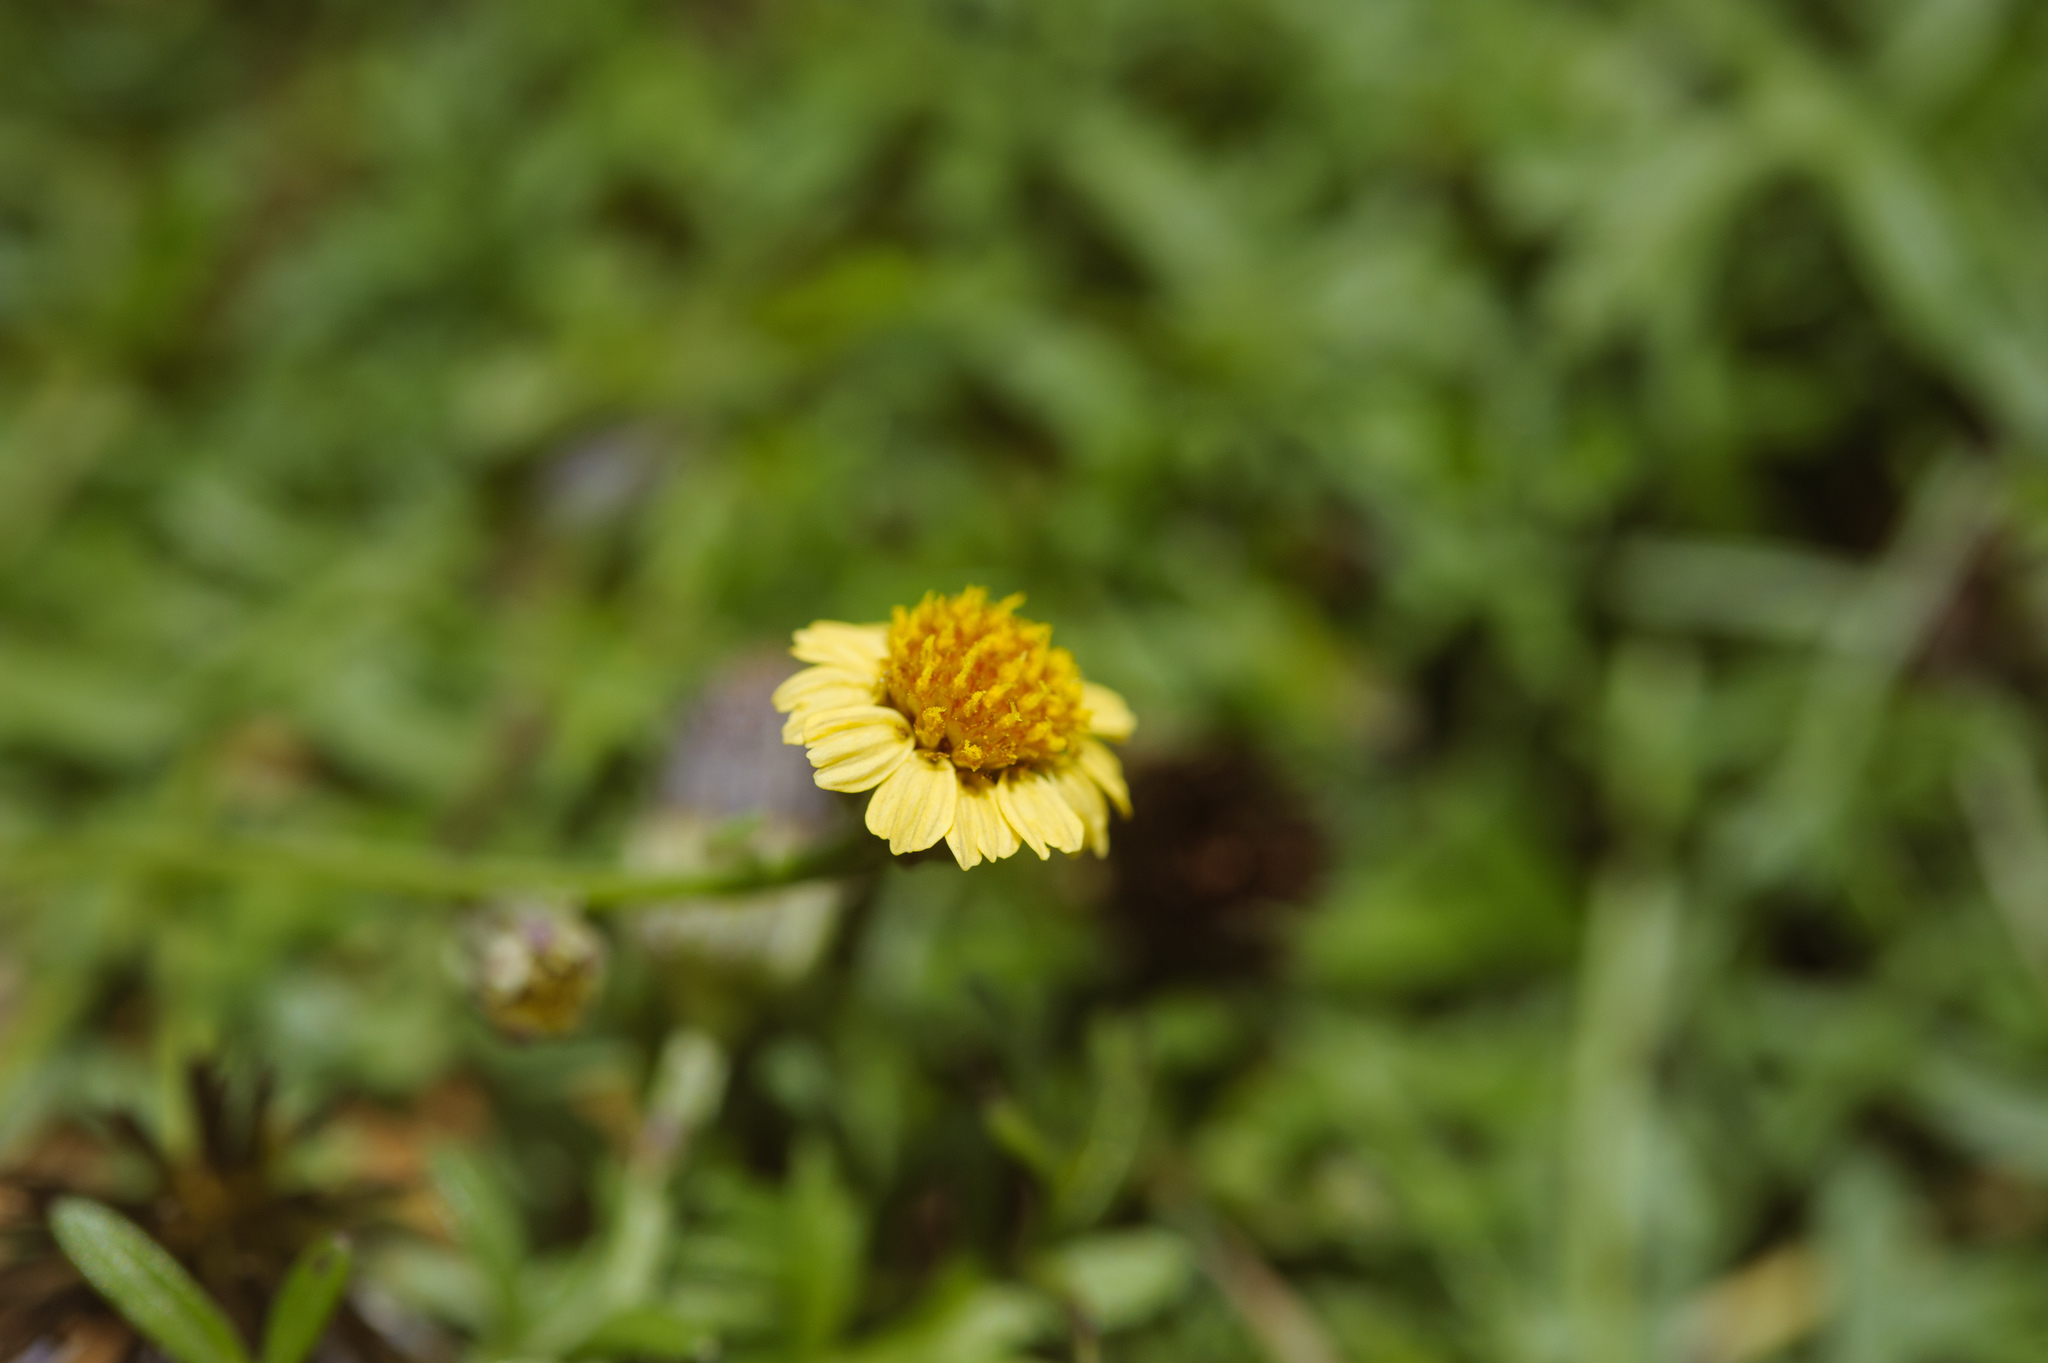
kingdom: Plantae
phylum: Tracheophyta
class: Magnoliopsida
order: Asterales
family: Asteraceae
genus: Glossocardia
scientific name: Glossocardia bidens
